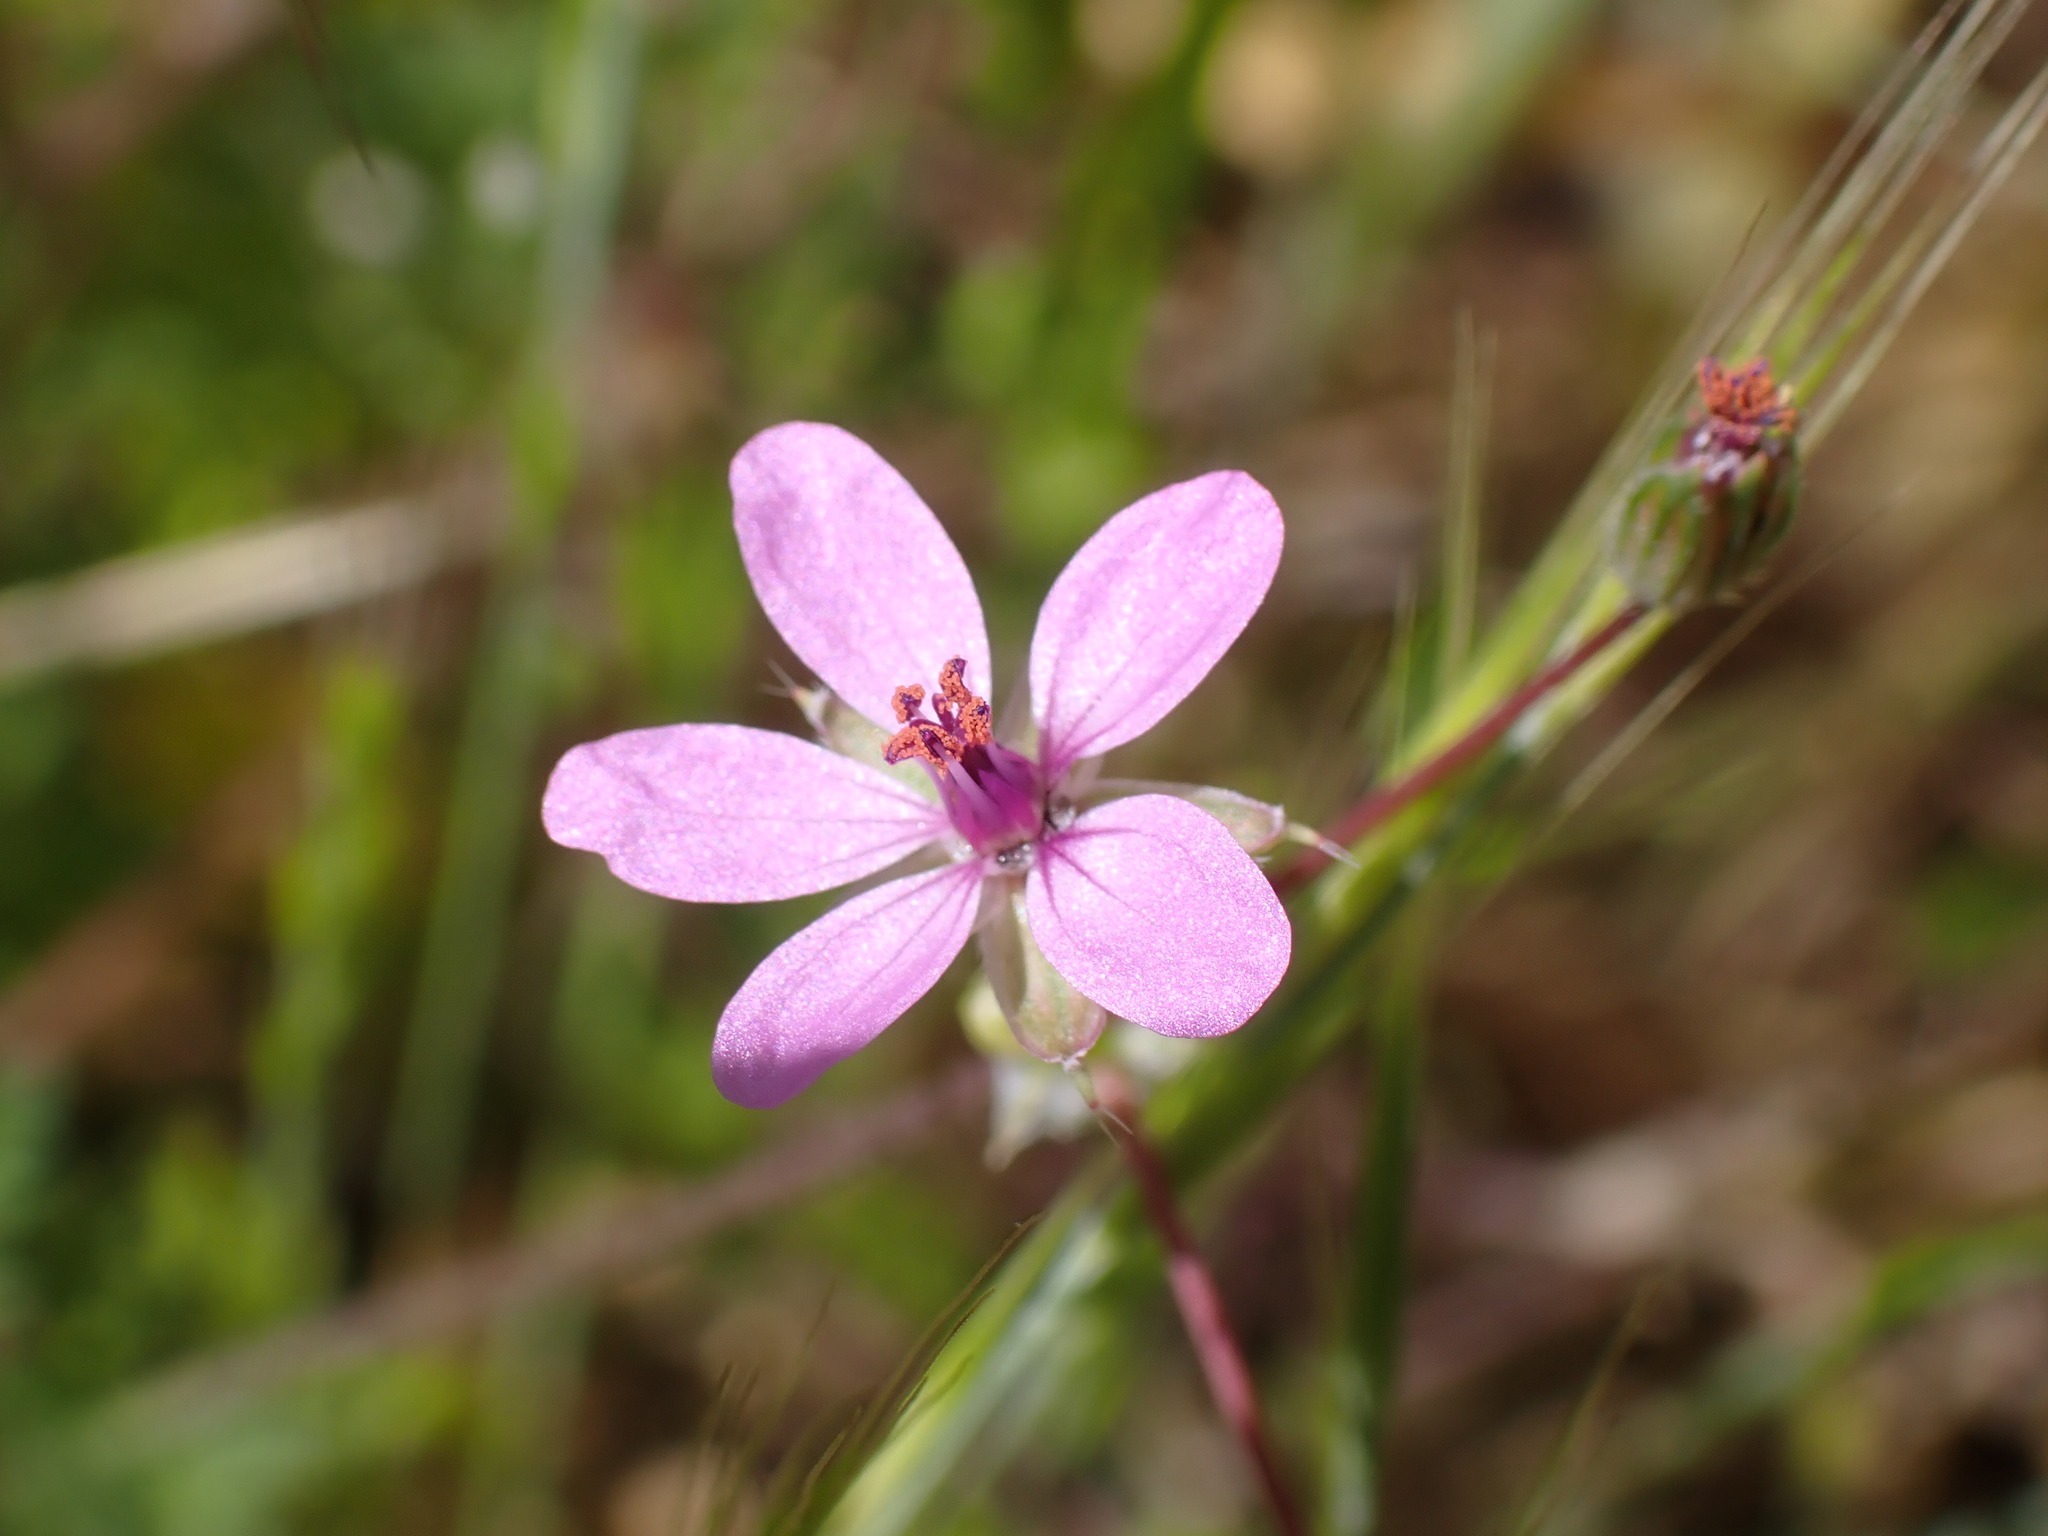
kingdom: Plantae
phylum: Tracheophyta
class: Magnoliopsida
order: Geraniales
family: Geraniaceae
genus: Erodium
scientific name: Erodium cicutarium
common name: Common stork's-bill
